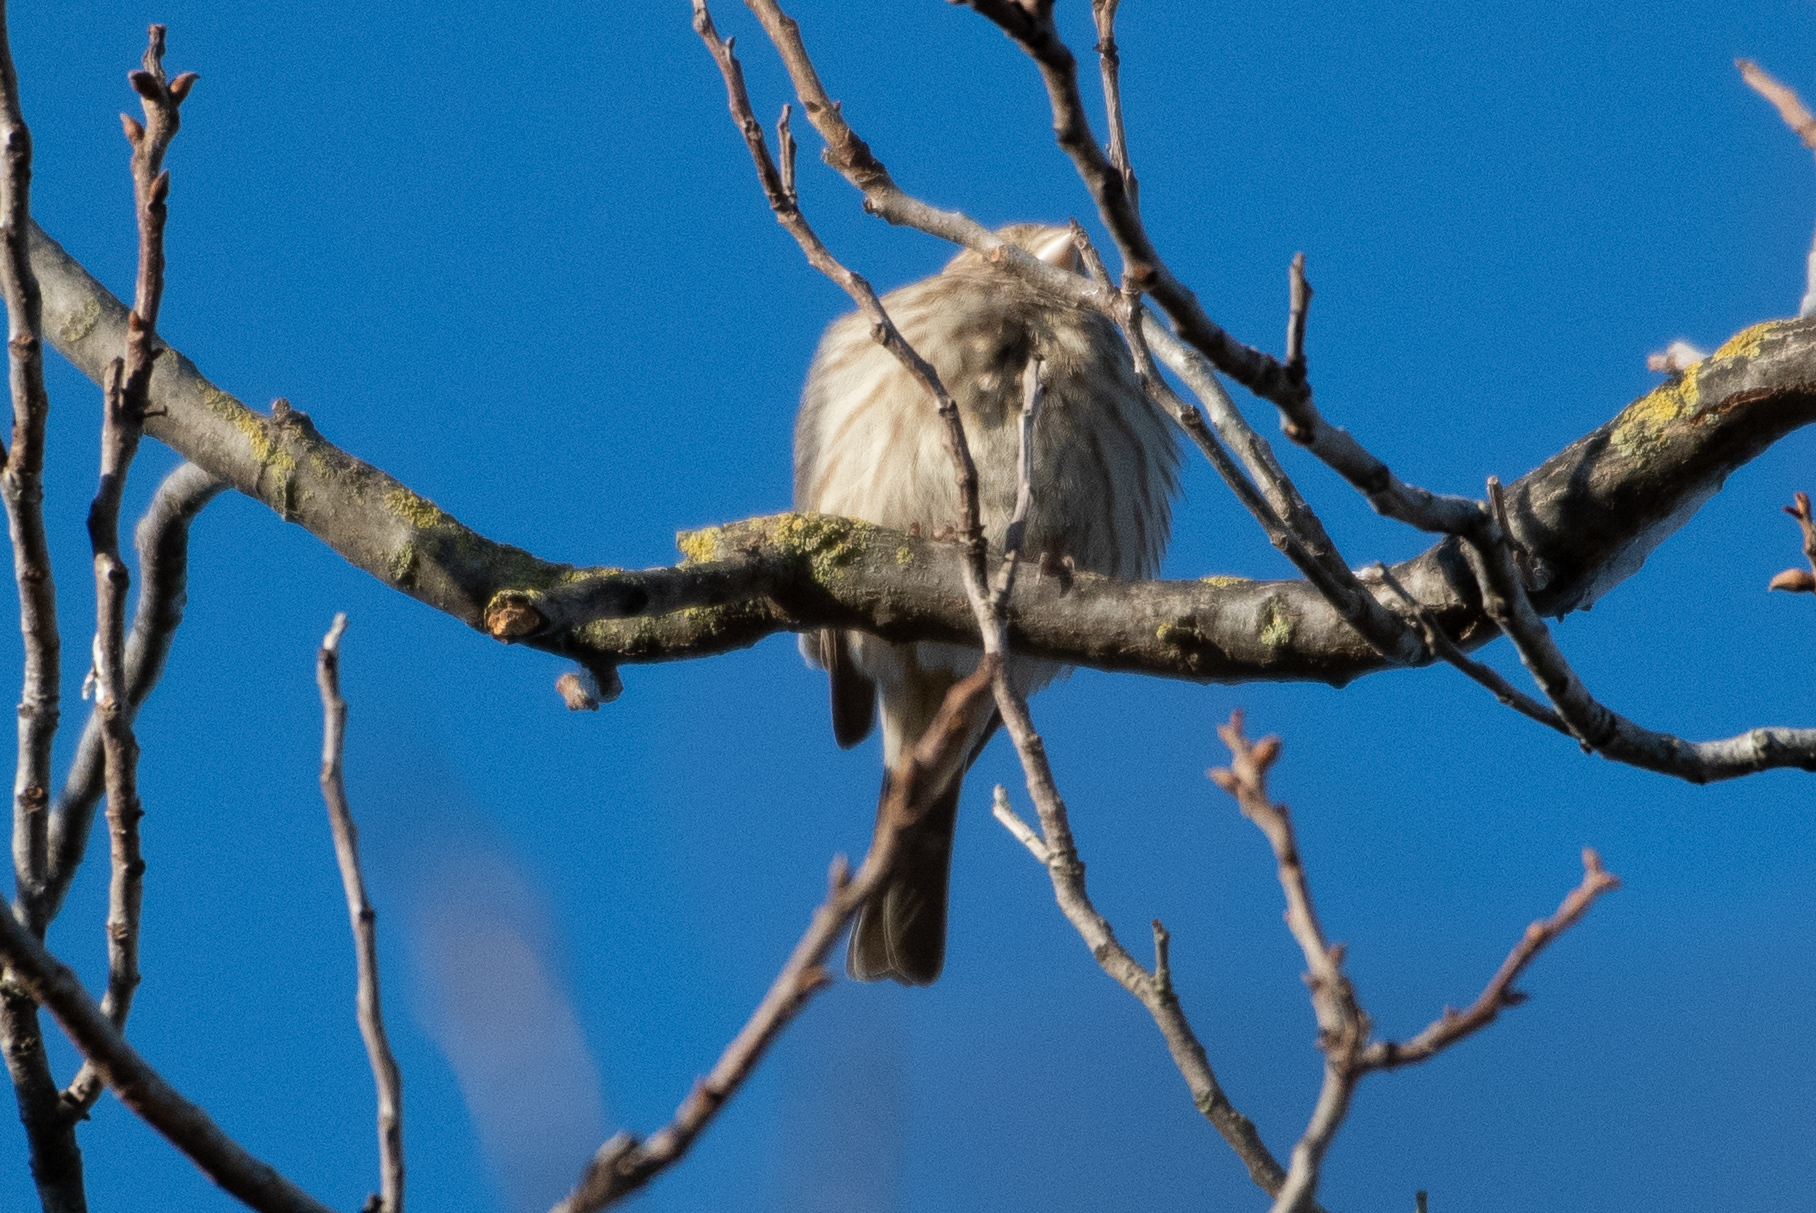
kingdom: Animalia
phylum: Chordata
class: Aves
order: Passeriformes
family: Fringillidae
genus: Haemorhous
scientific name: Haemorhous mexicanus
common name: House finch
